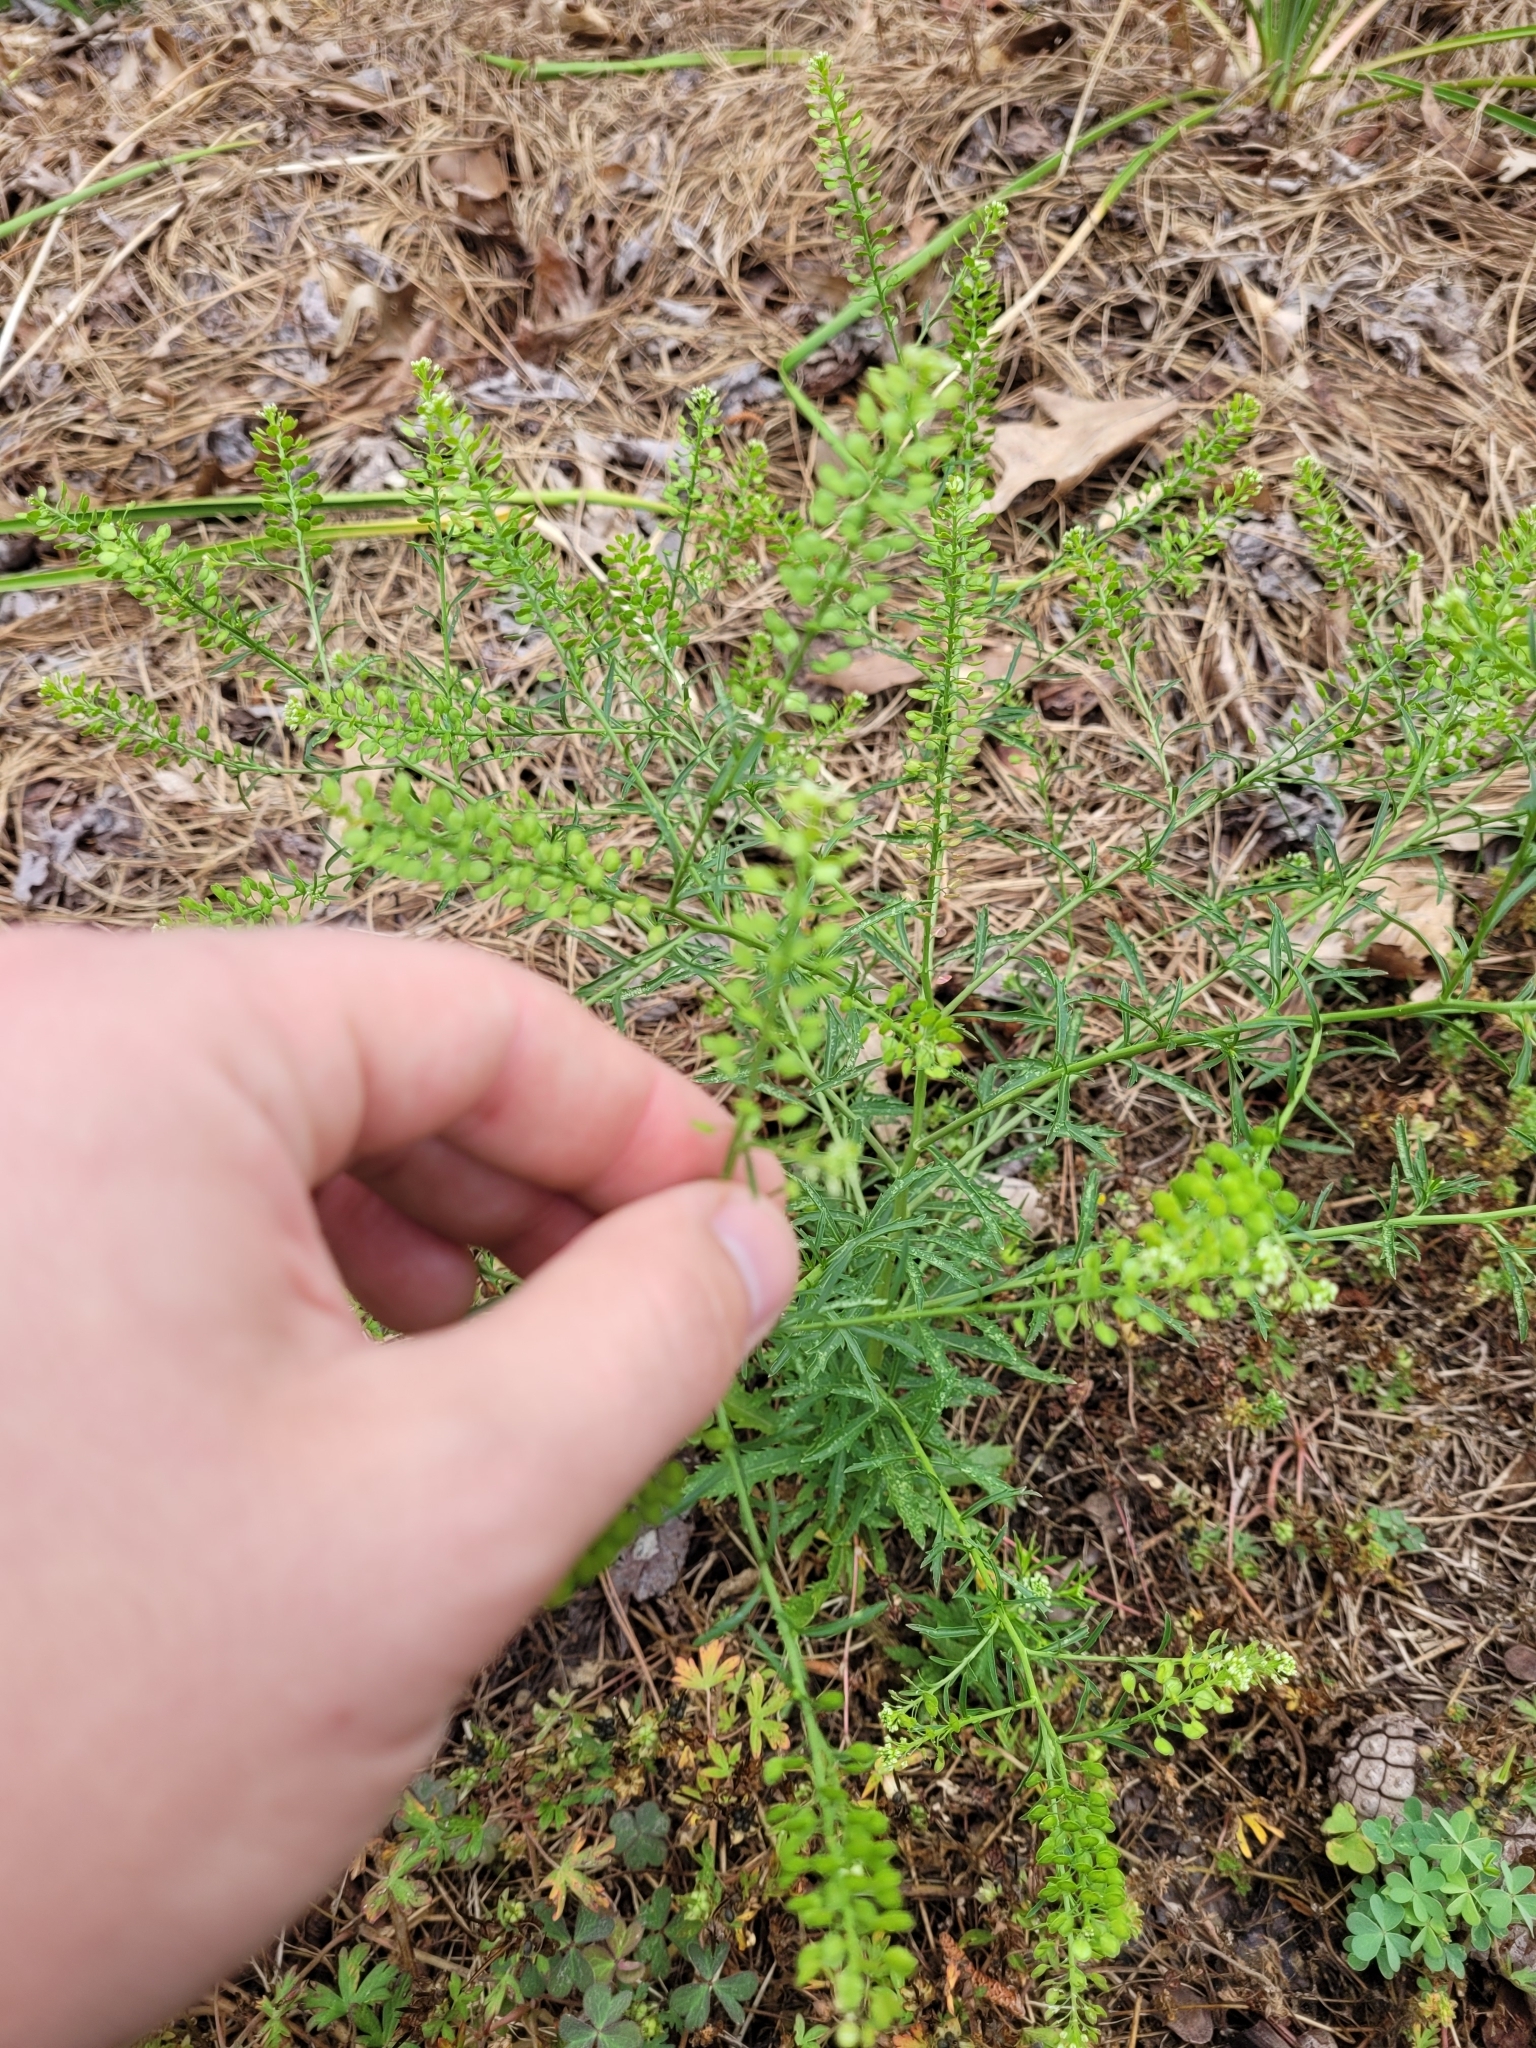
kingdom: Plantae
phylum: Tracheophyta
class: Magnoliopsida
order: Brassicales
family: Brassicaceae
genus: Lepidium
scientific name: Lepidium virginicum
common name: Least pepperwort
